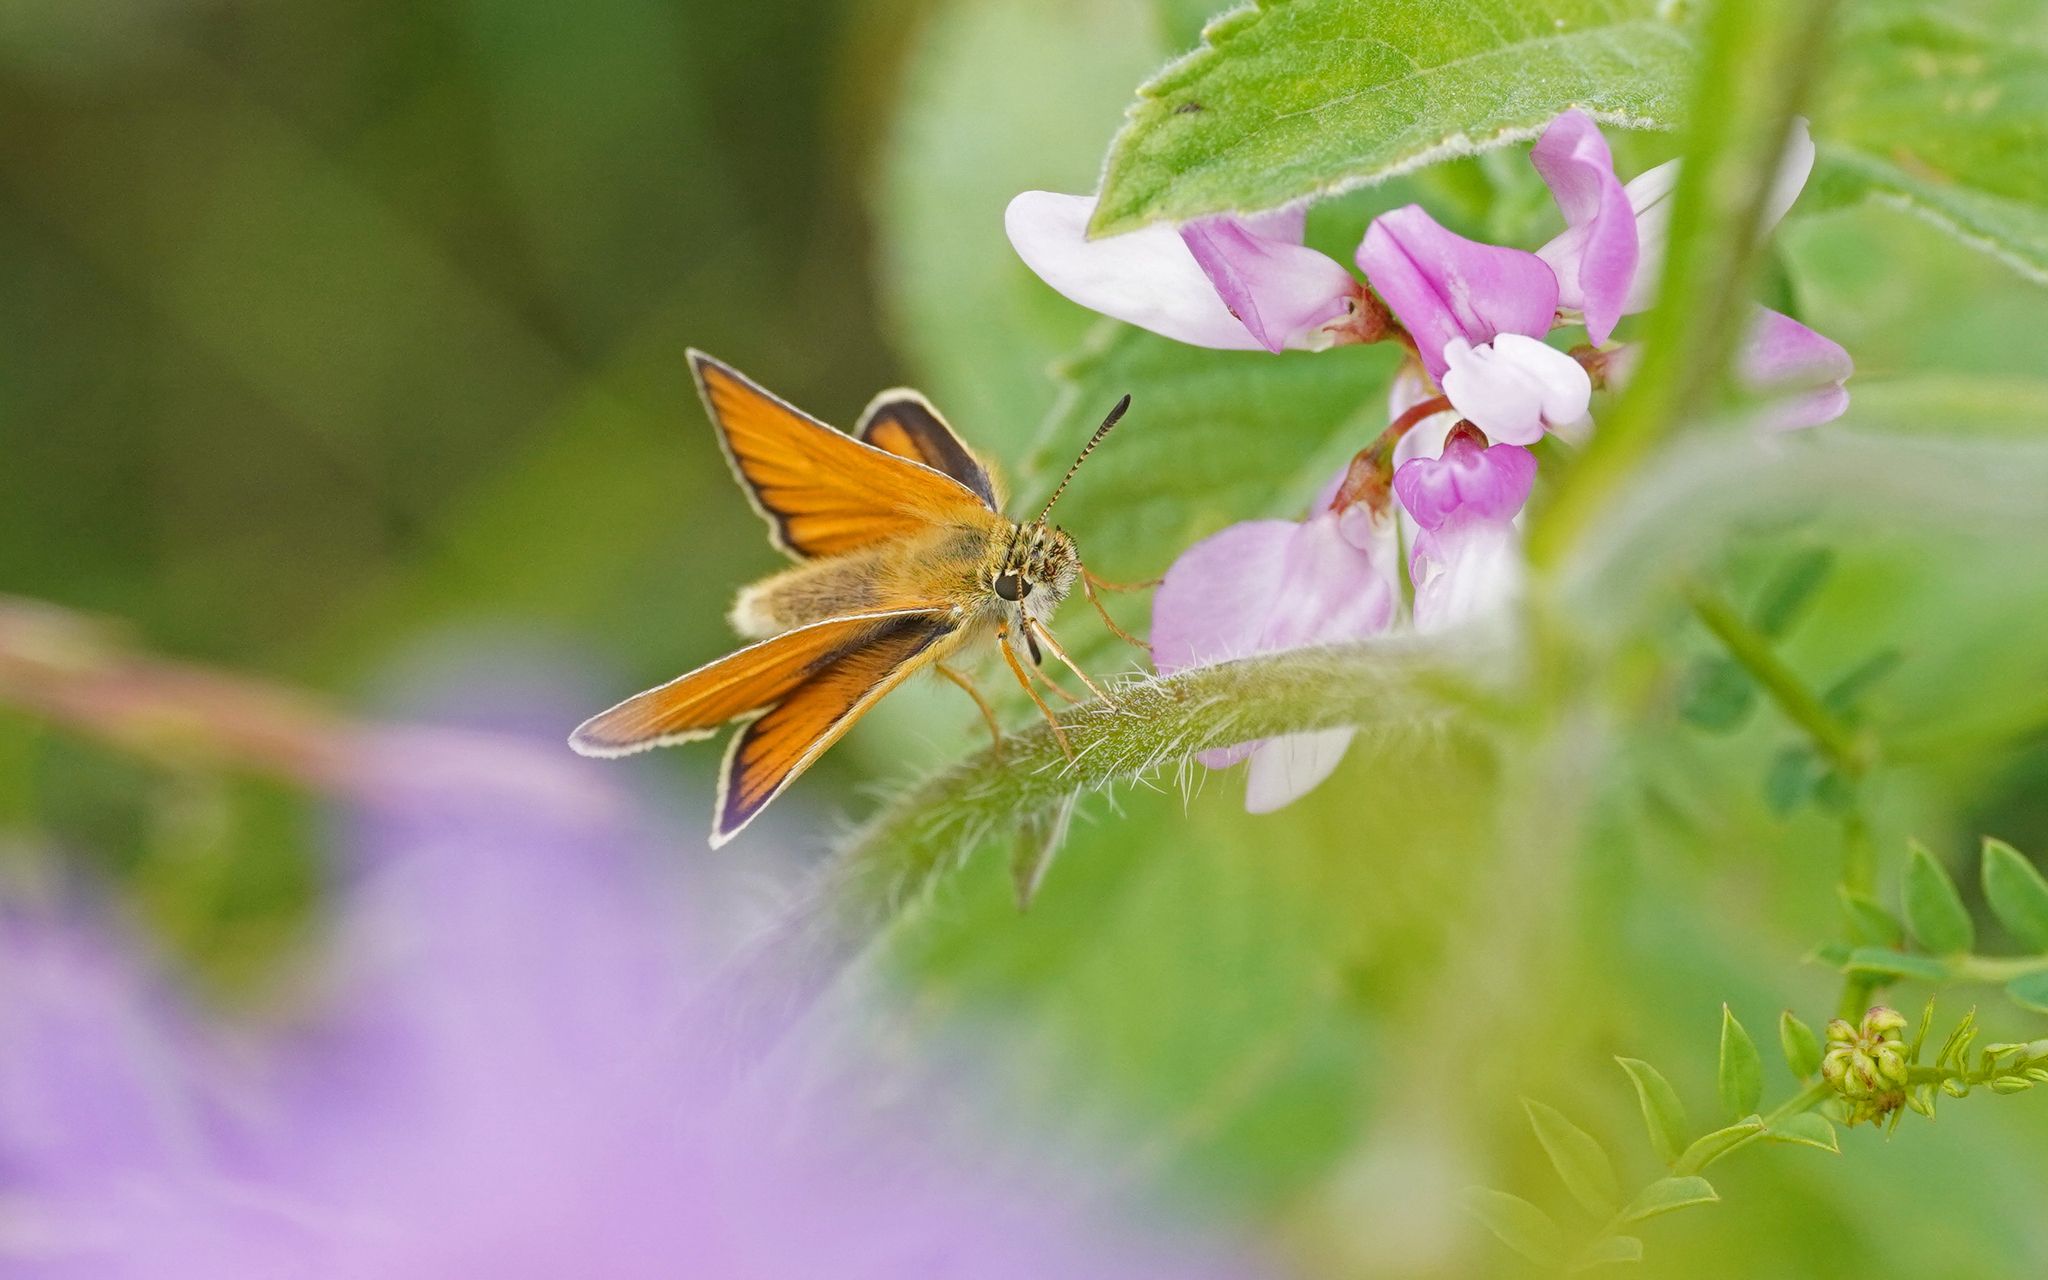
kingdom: Animalia
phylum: Arthropoda
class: Insecta
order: Lepidoptera
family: Hesperiidae
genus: Thymelicus
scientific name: Thymelicus lineola
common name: Essex skipper
